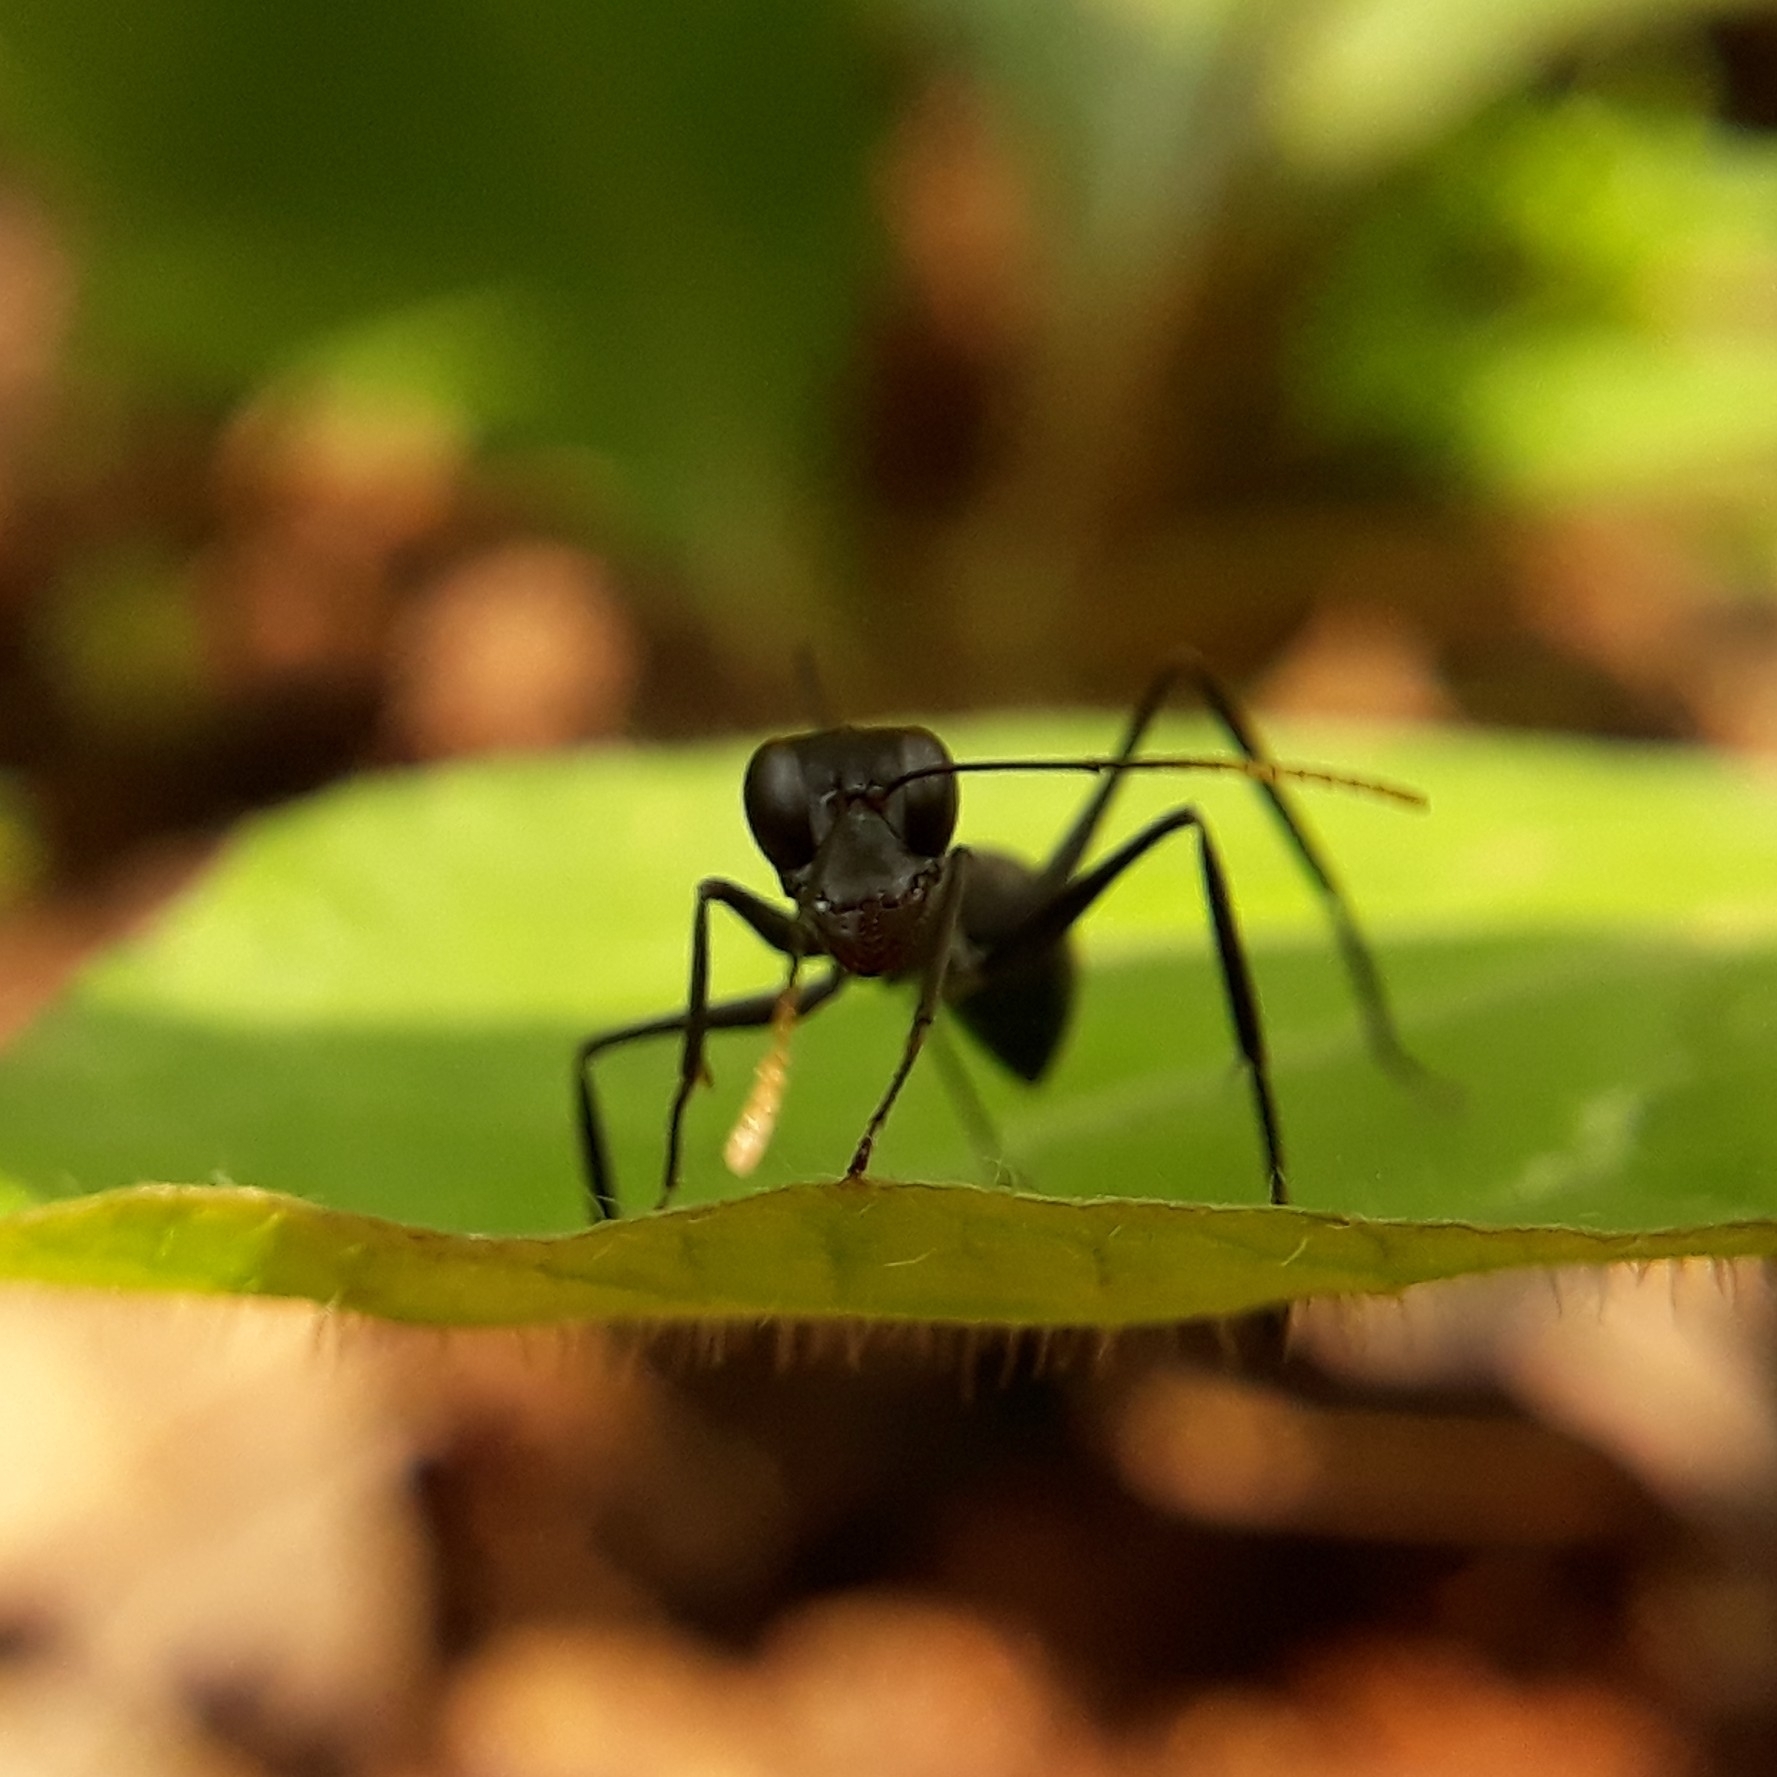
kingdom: Animalia
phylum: Arthropoda
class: Insecta
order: Hymenoptera
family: Formicidae
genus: Gigantiops
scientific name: Gigantiops destructor
